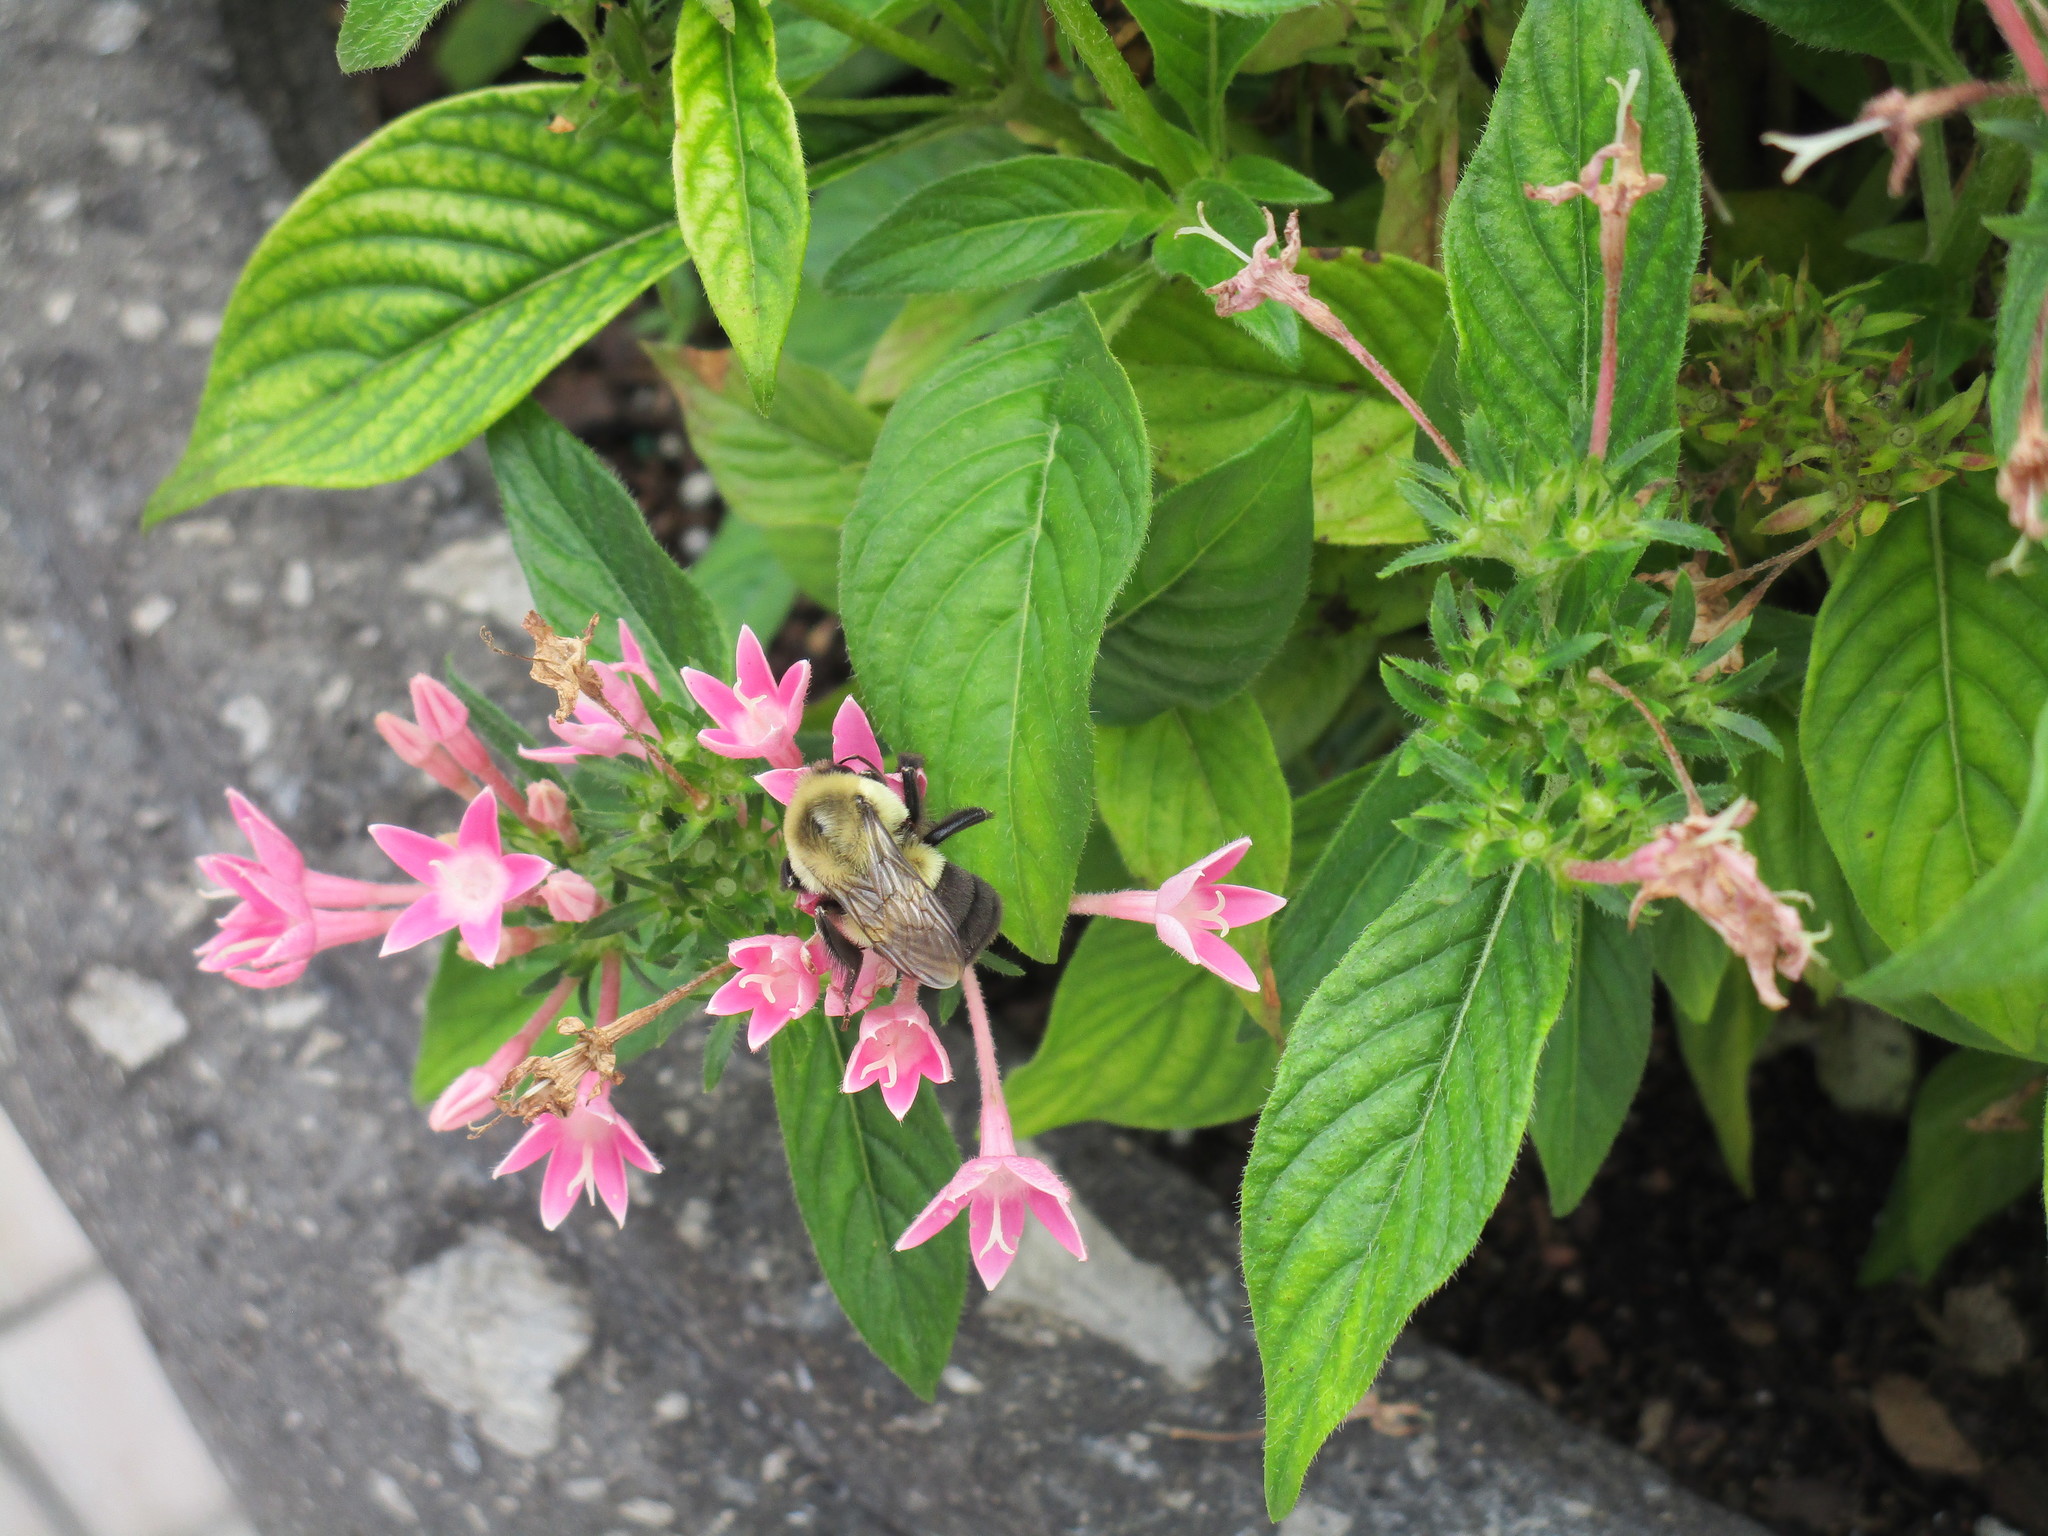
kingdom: Animalia
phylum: Arthropoda
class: Insecta
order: Hymenoptera
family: Apidae
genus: Bombus
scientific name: Bombus impatiens
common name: Common eastern bumble bee
